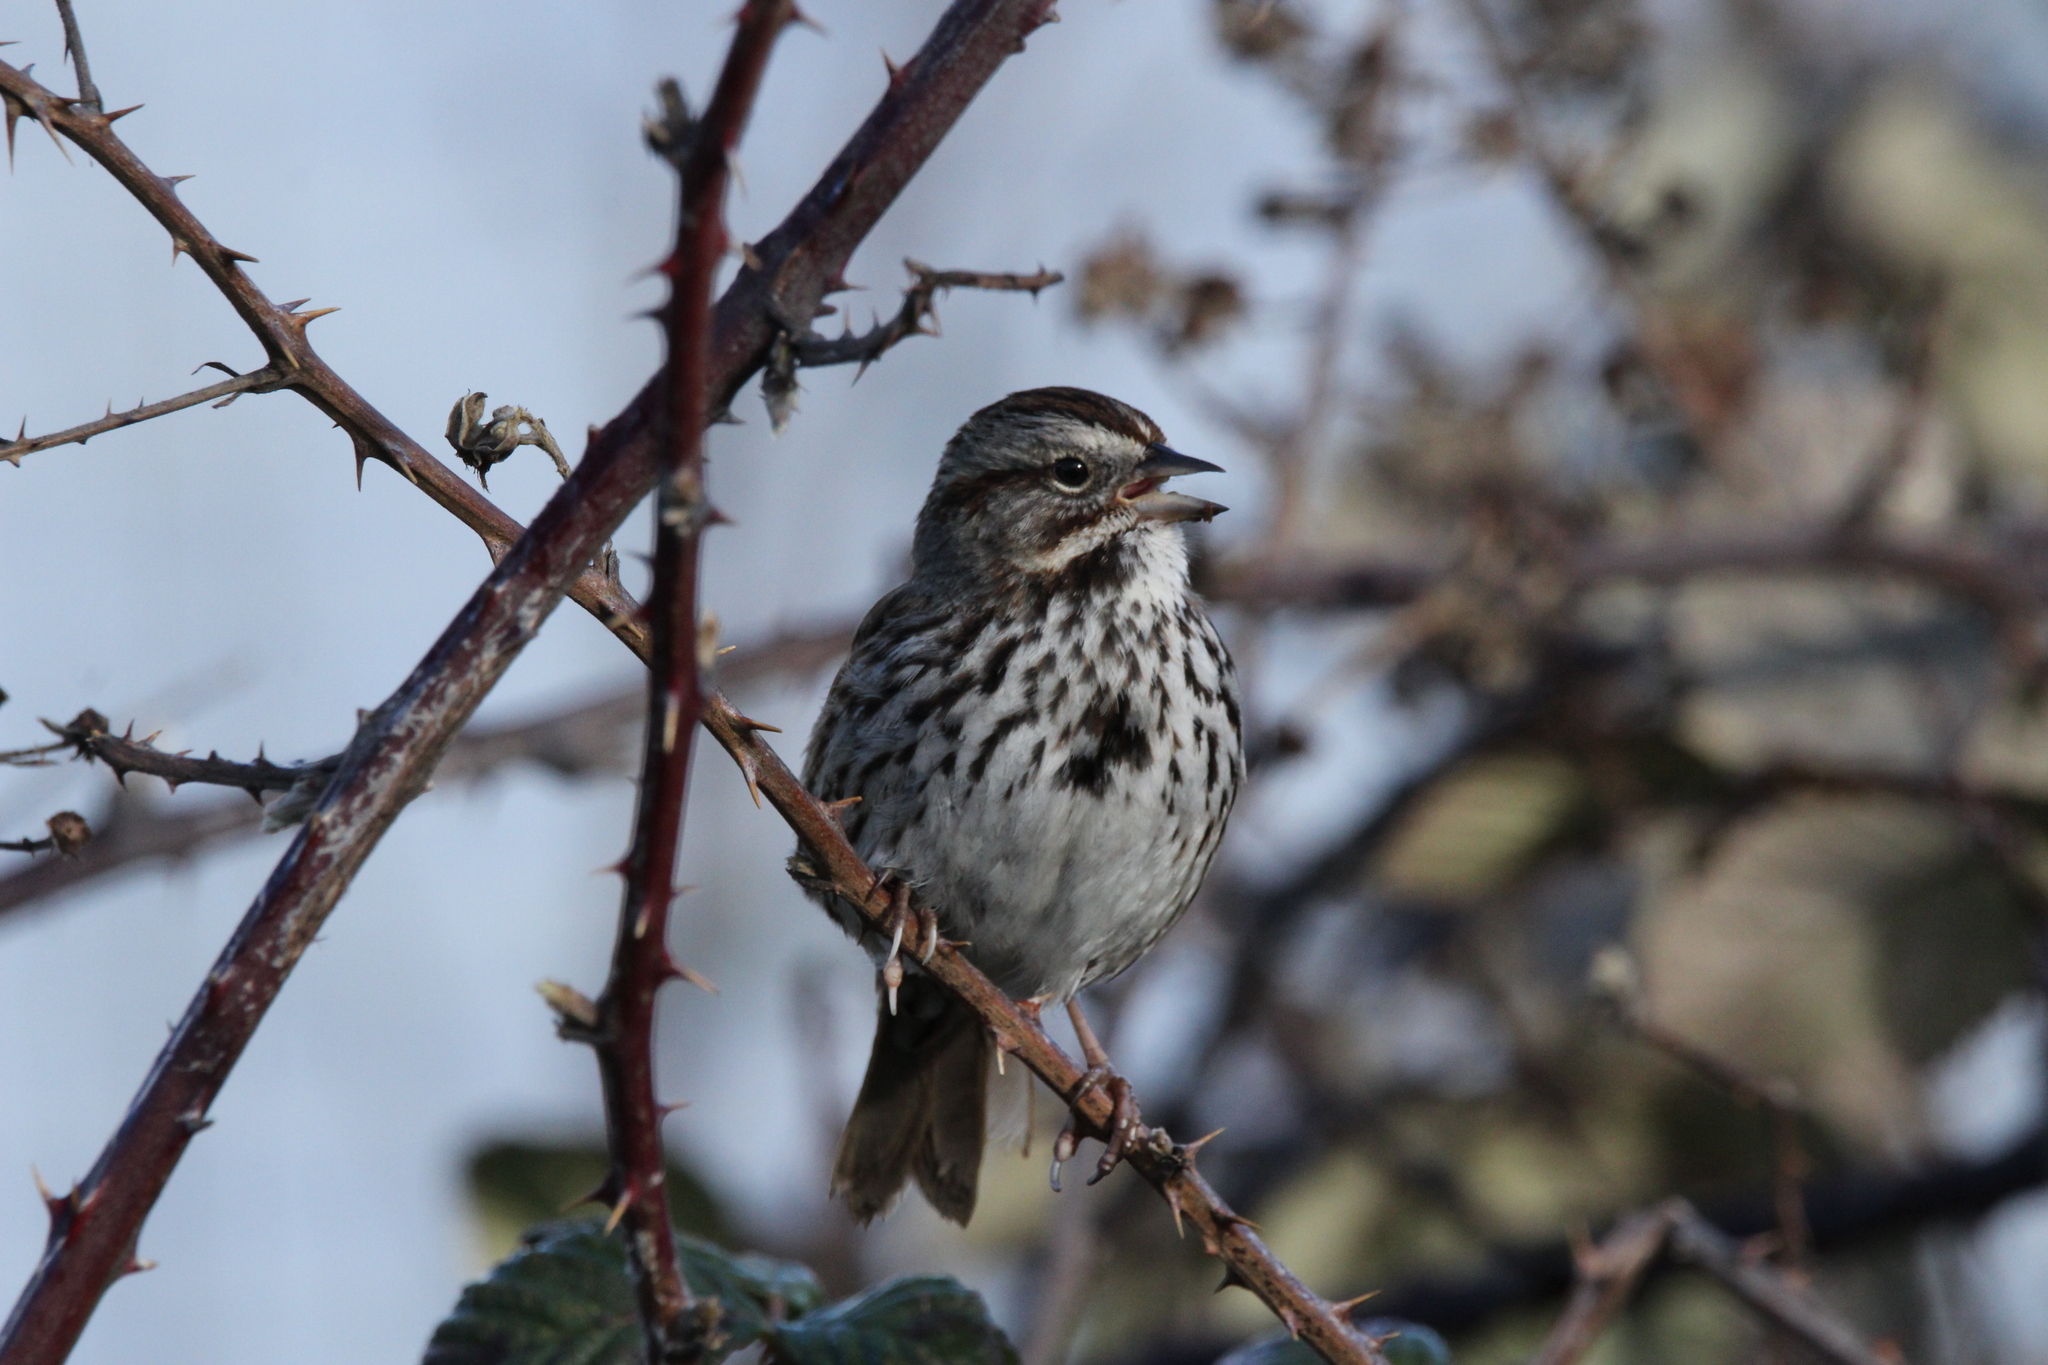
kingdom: Animalia
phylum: Chordata
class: Aves
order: Passeriformes
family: Passerellidae
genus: Melospiza
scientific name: Melospiza melodia
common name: Song sparrow
